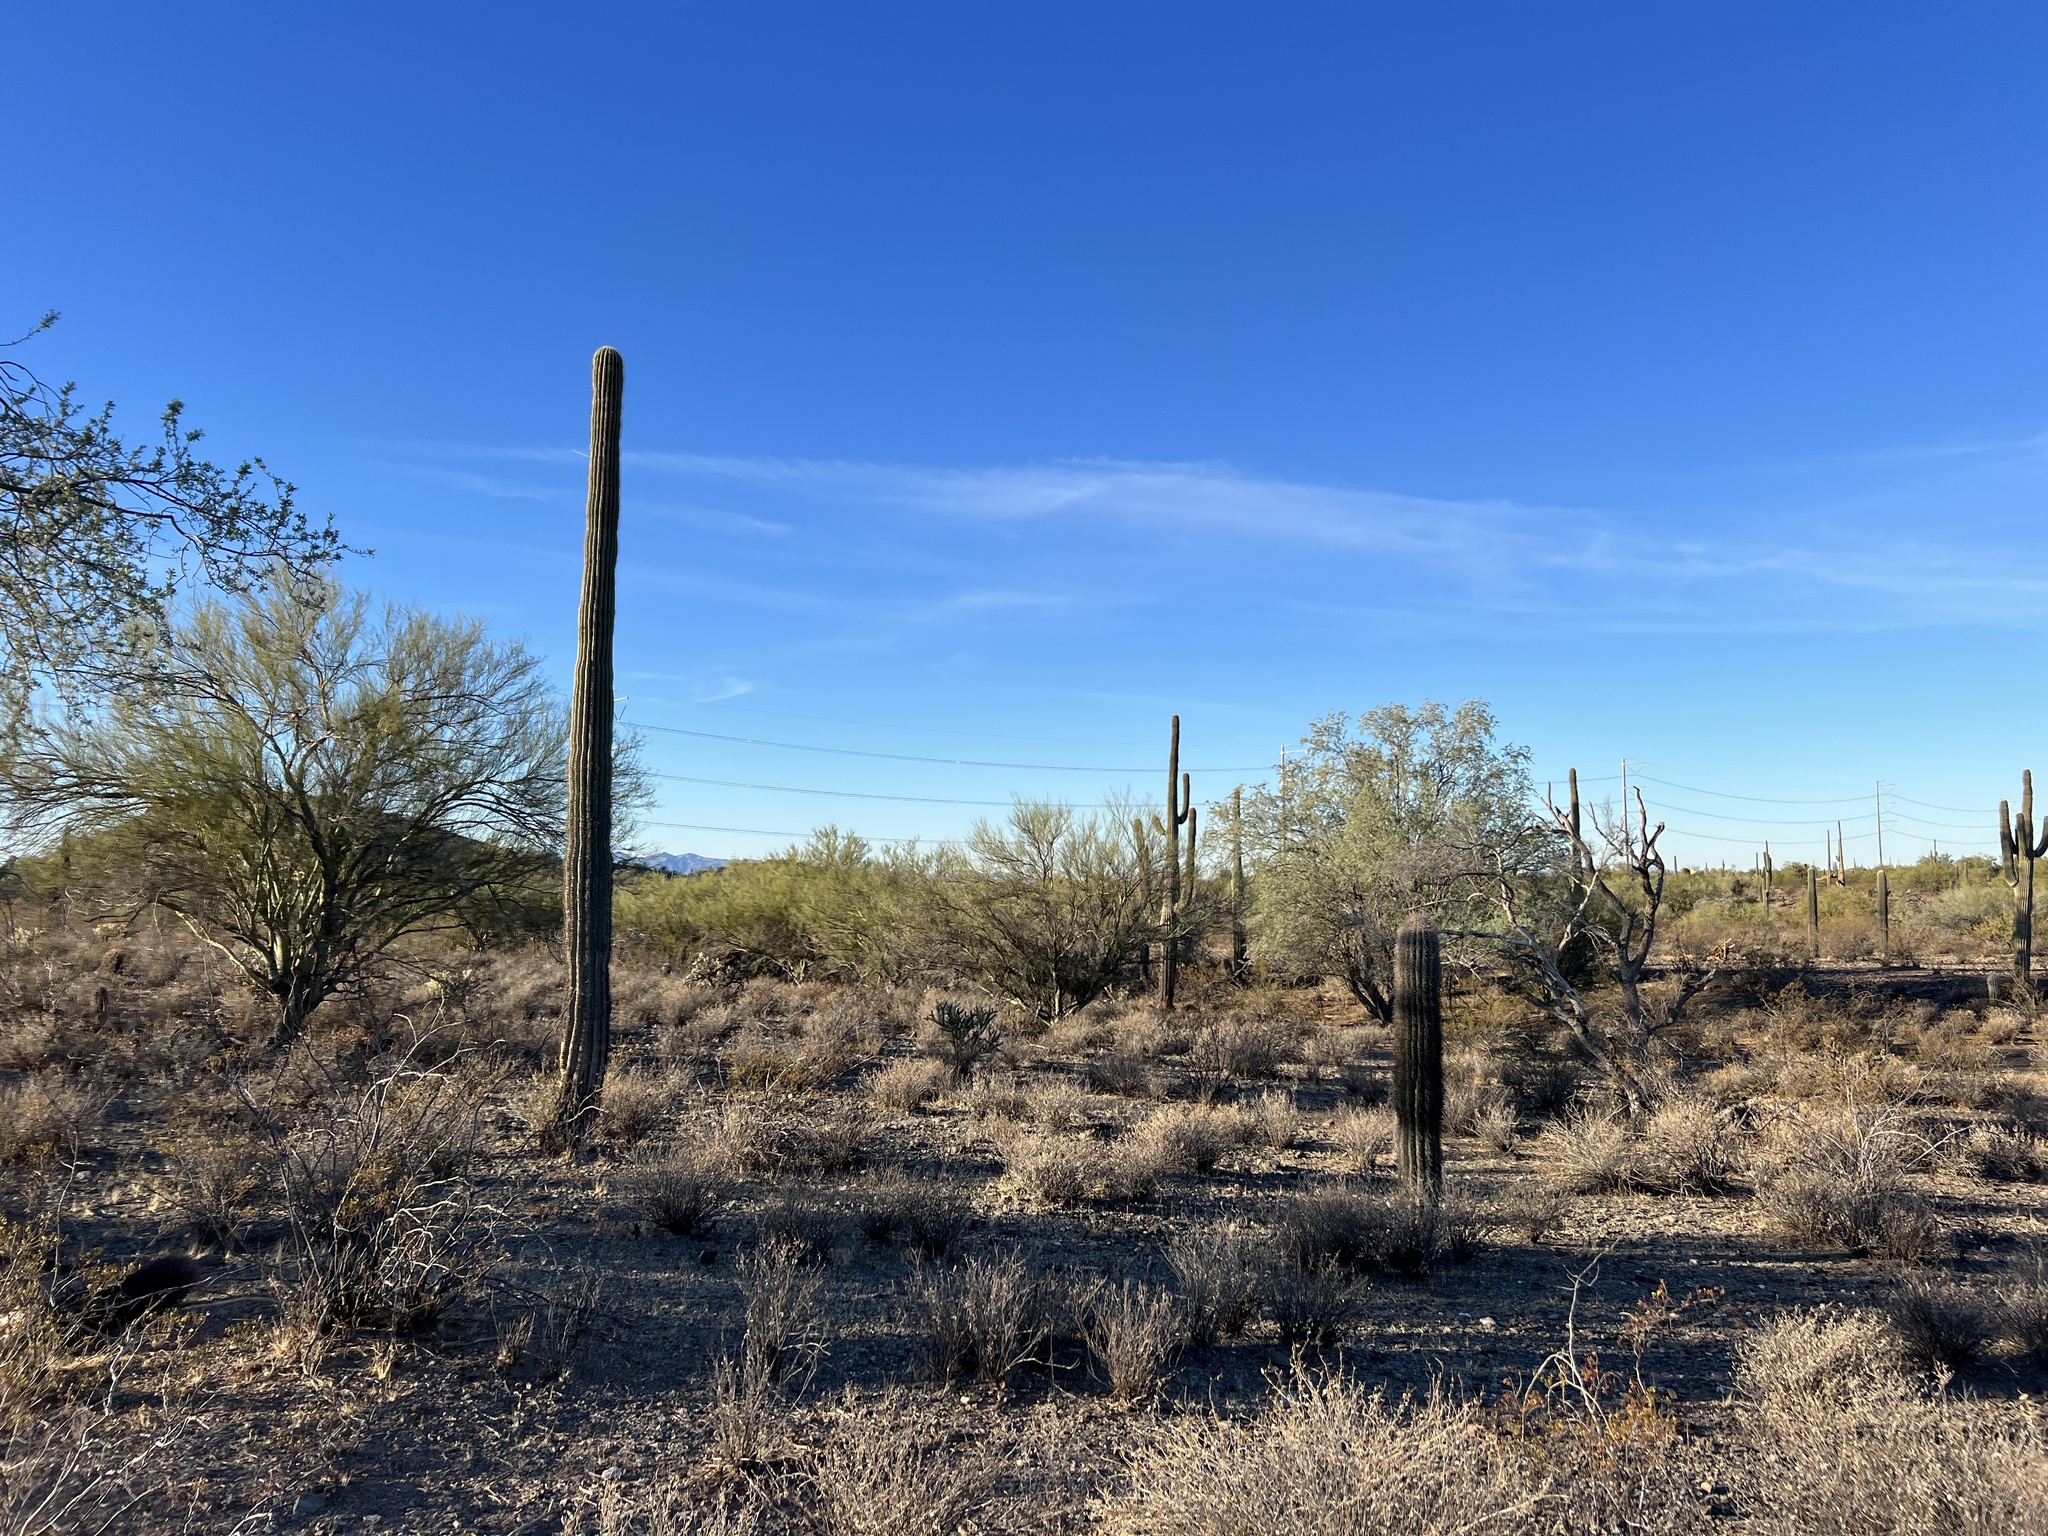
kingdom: Plantae
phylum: Tracheophyta
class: Magnoliopsida
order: Caryophyllales
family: Cactaceae
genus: Carnegiea
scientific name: Carnegiea gigantea
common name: Saguaro
